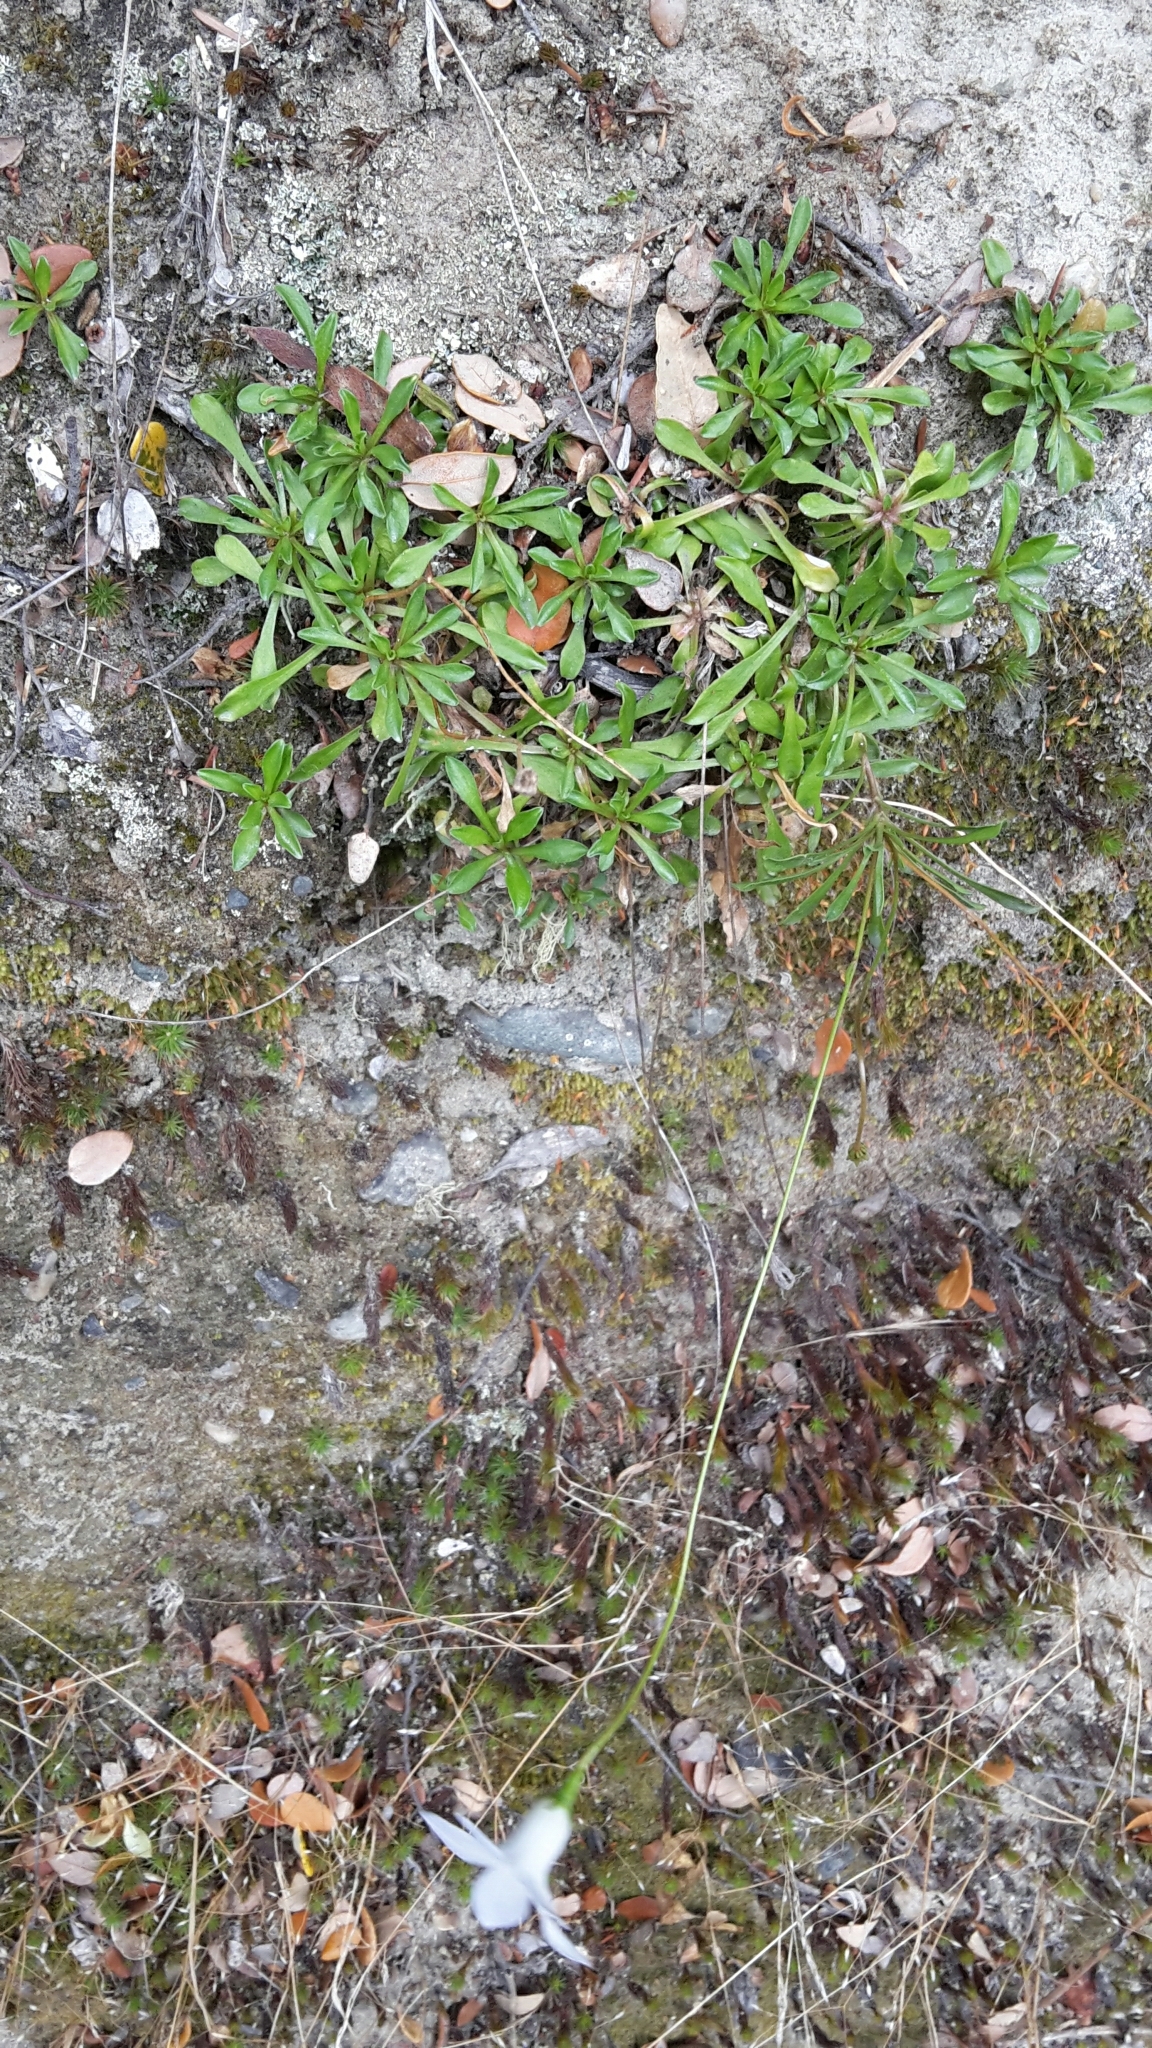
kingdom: Plantae
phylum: Tracheophyta
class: Magnoliopsida
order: Asterales
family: Campanulaceae
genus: Wahlenbergia
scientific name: Wahlenbergia albomarginata
